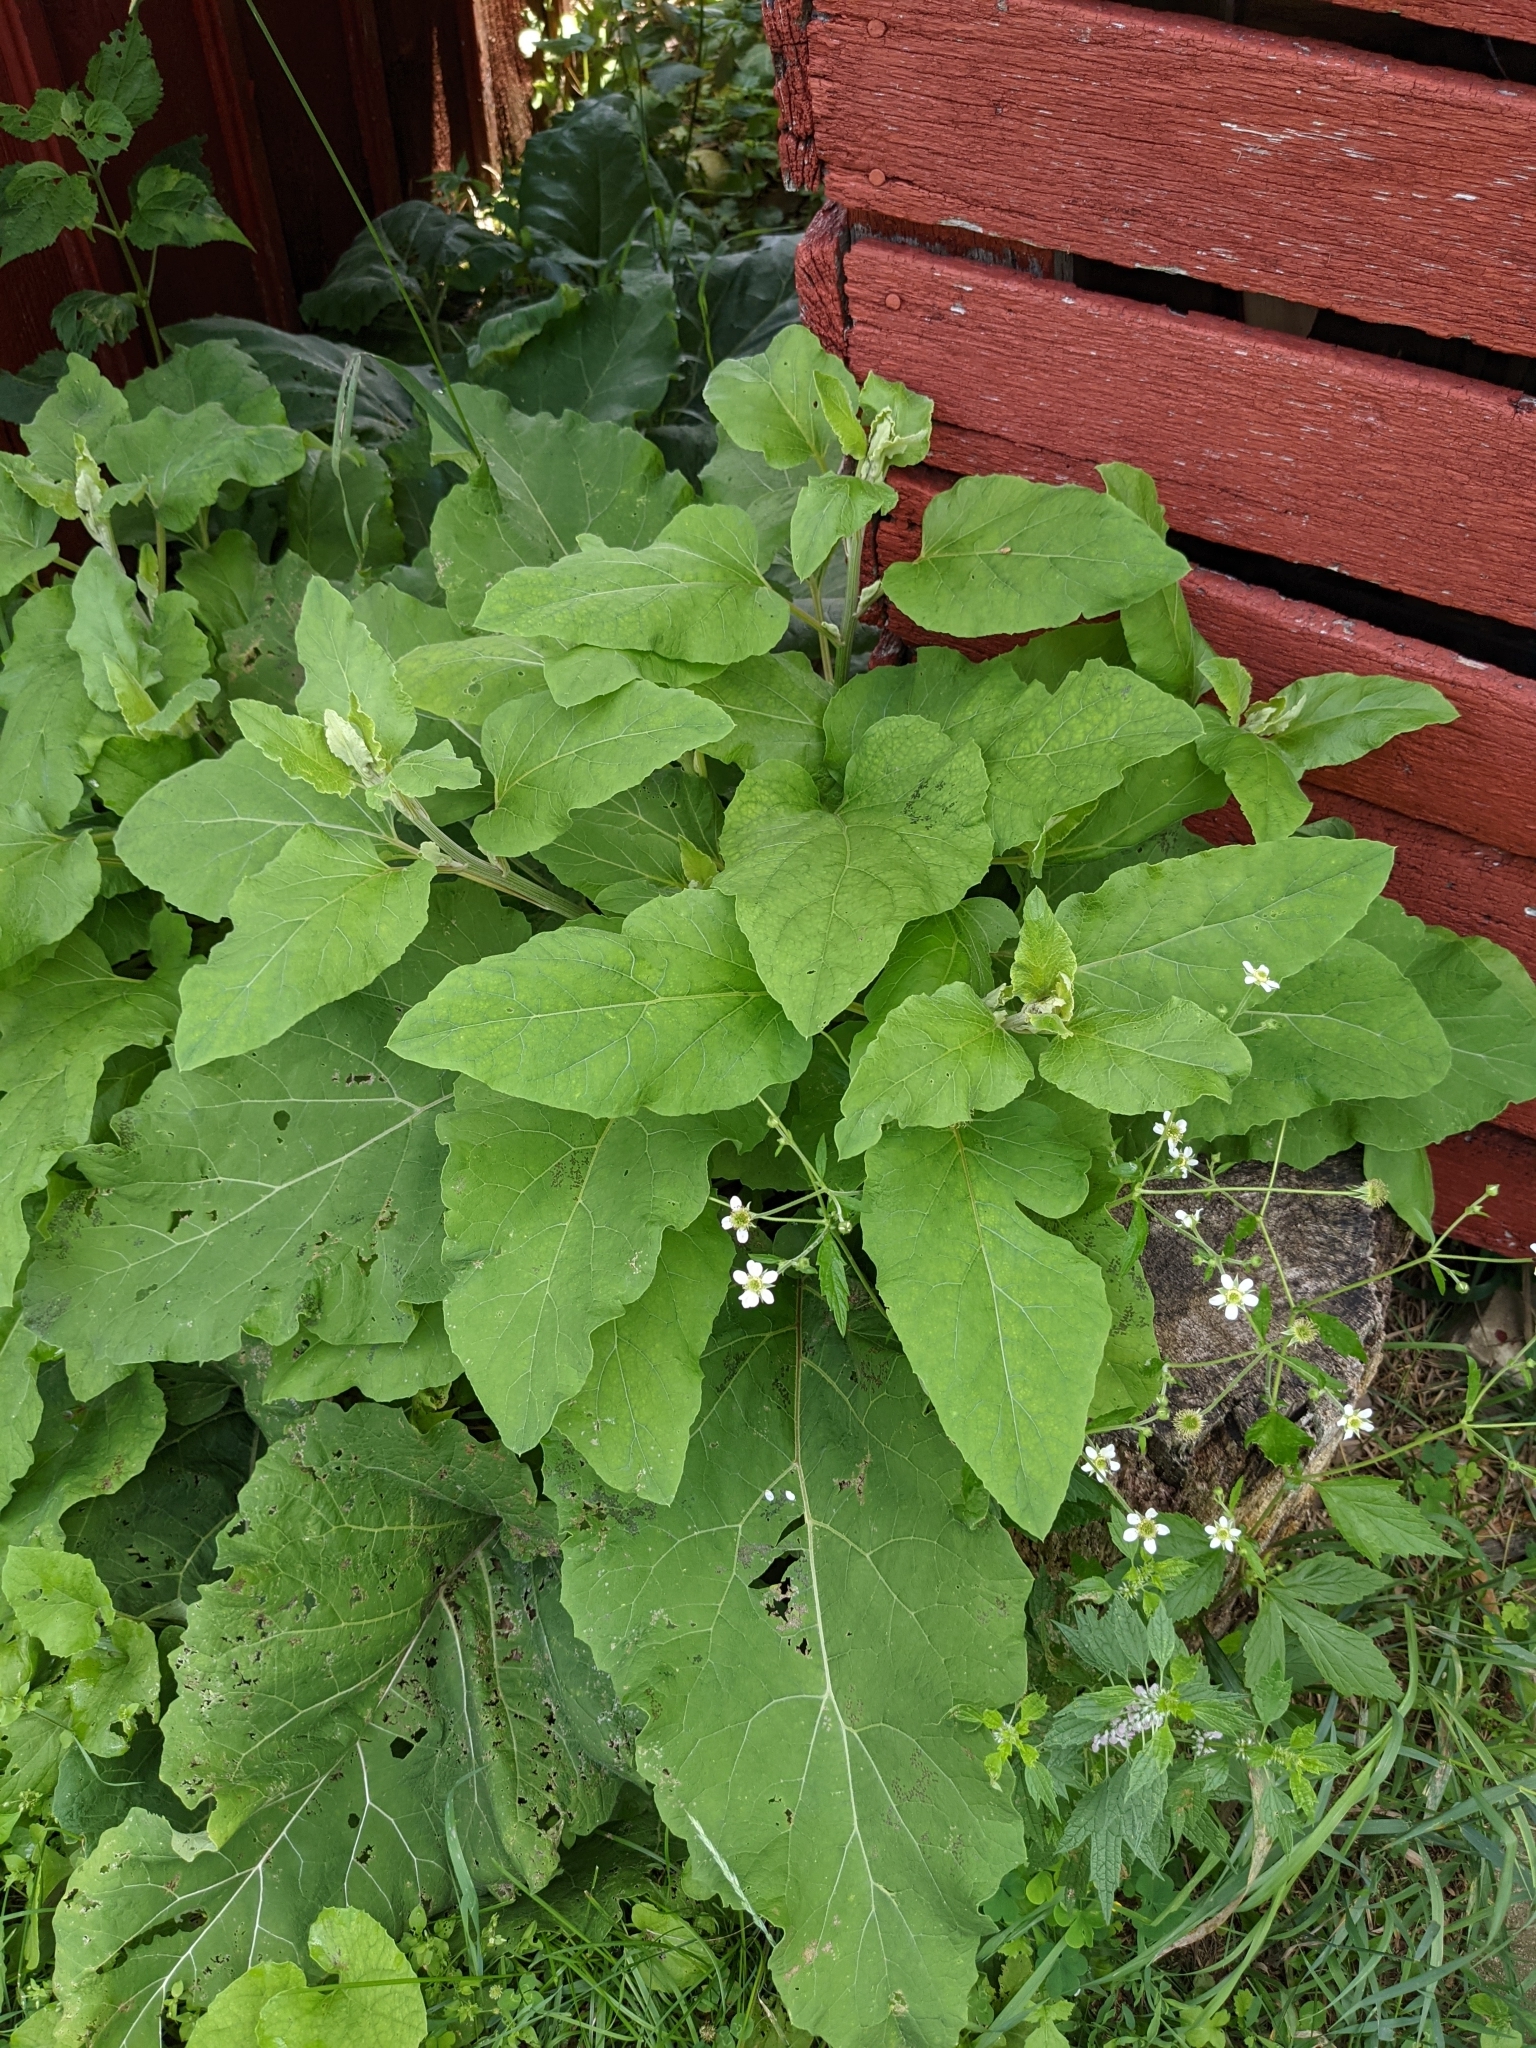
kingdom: Plantae
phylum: Tracheophyta
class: Magnoliopsida
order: Asterales
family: Asteraceae
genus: Arctium
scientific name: Arctium
